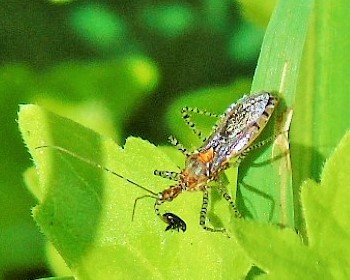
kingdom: Animalia
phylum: Arthropoda
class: Insecta
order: Hemiptera
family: Reduviidae
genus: Pselliopus
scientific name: Pselliopus
